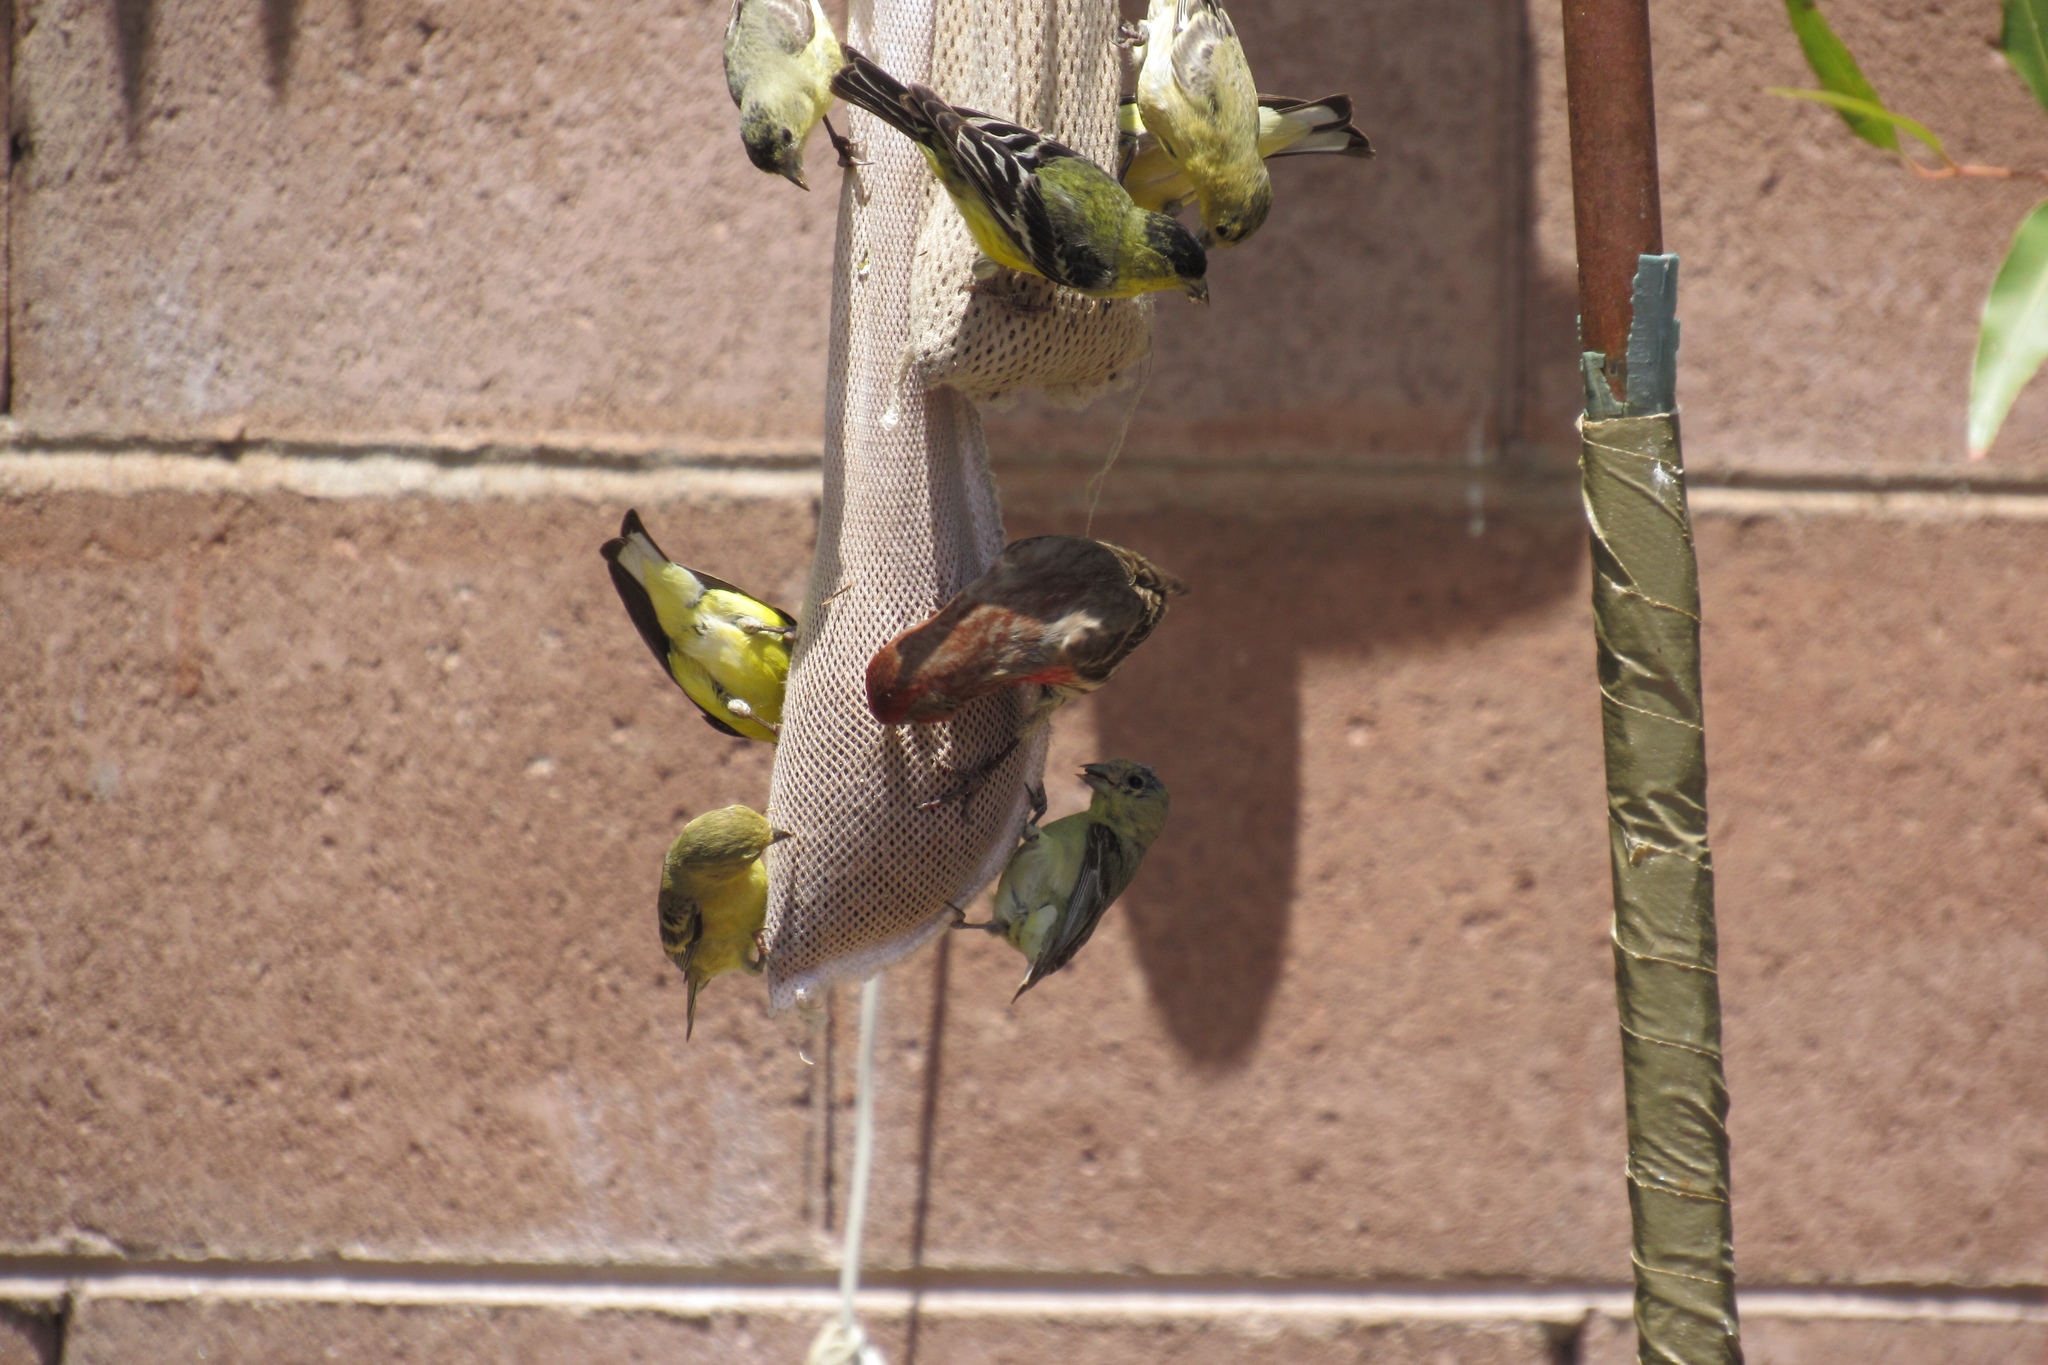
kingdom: Animalia
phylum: Chordata
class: Aves
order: Passeriformes
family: Fringillidae
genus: Spinus
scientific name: Spinus psaltria
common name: Lesser goldfinch
